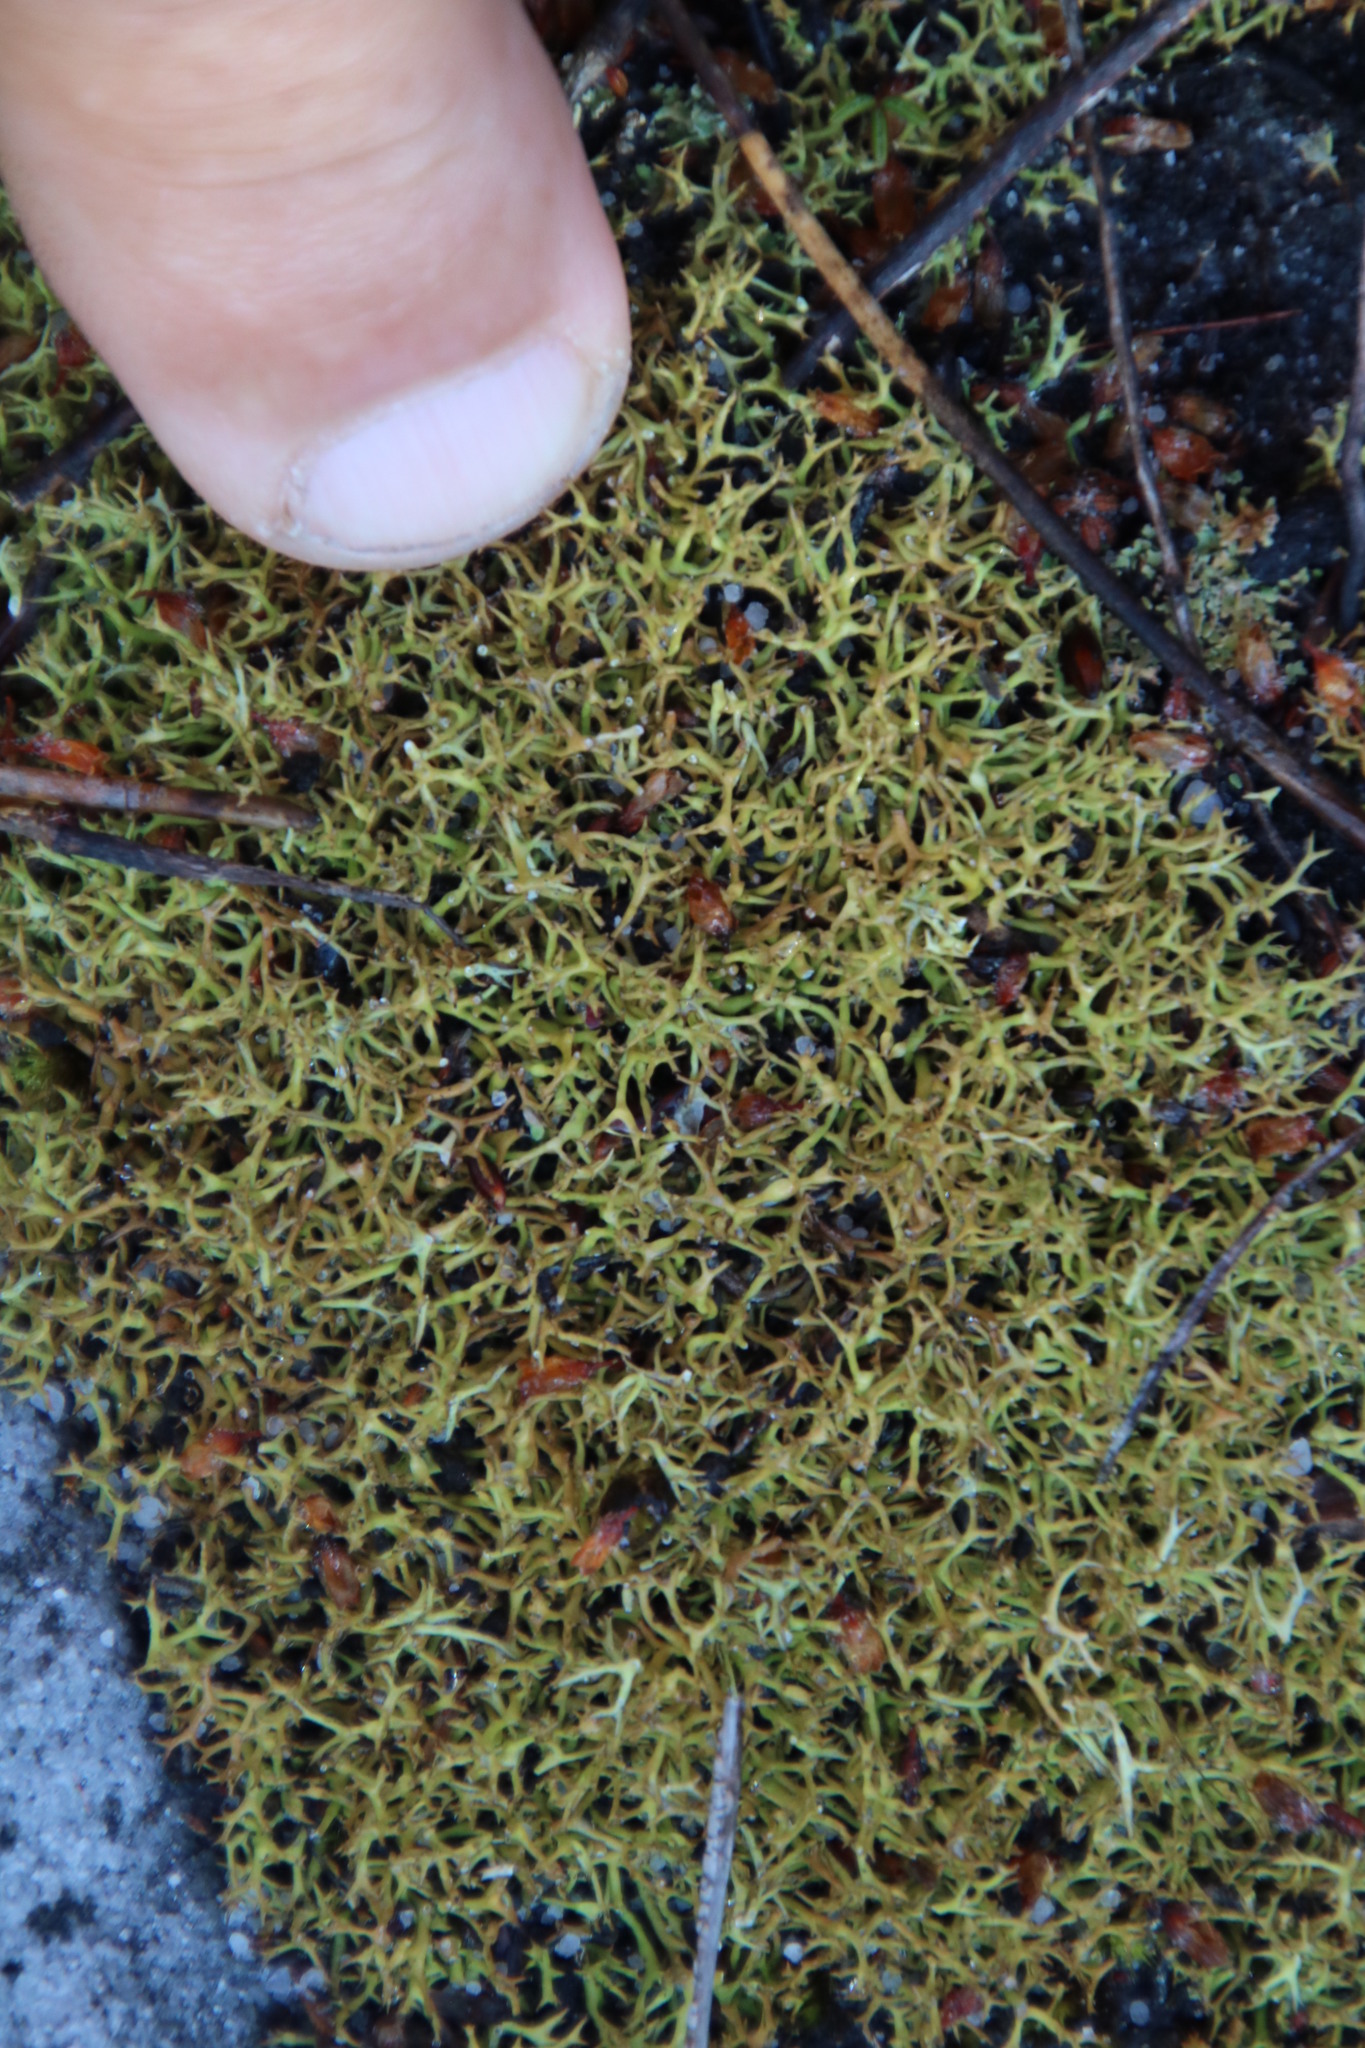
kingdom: Fungi
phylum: Ascomycota
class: Lecanoromycetes
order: Lecanorales
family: Cladoniaceae
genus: Cladonia
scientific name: Cladonia
